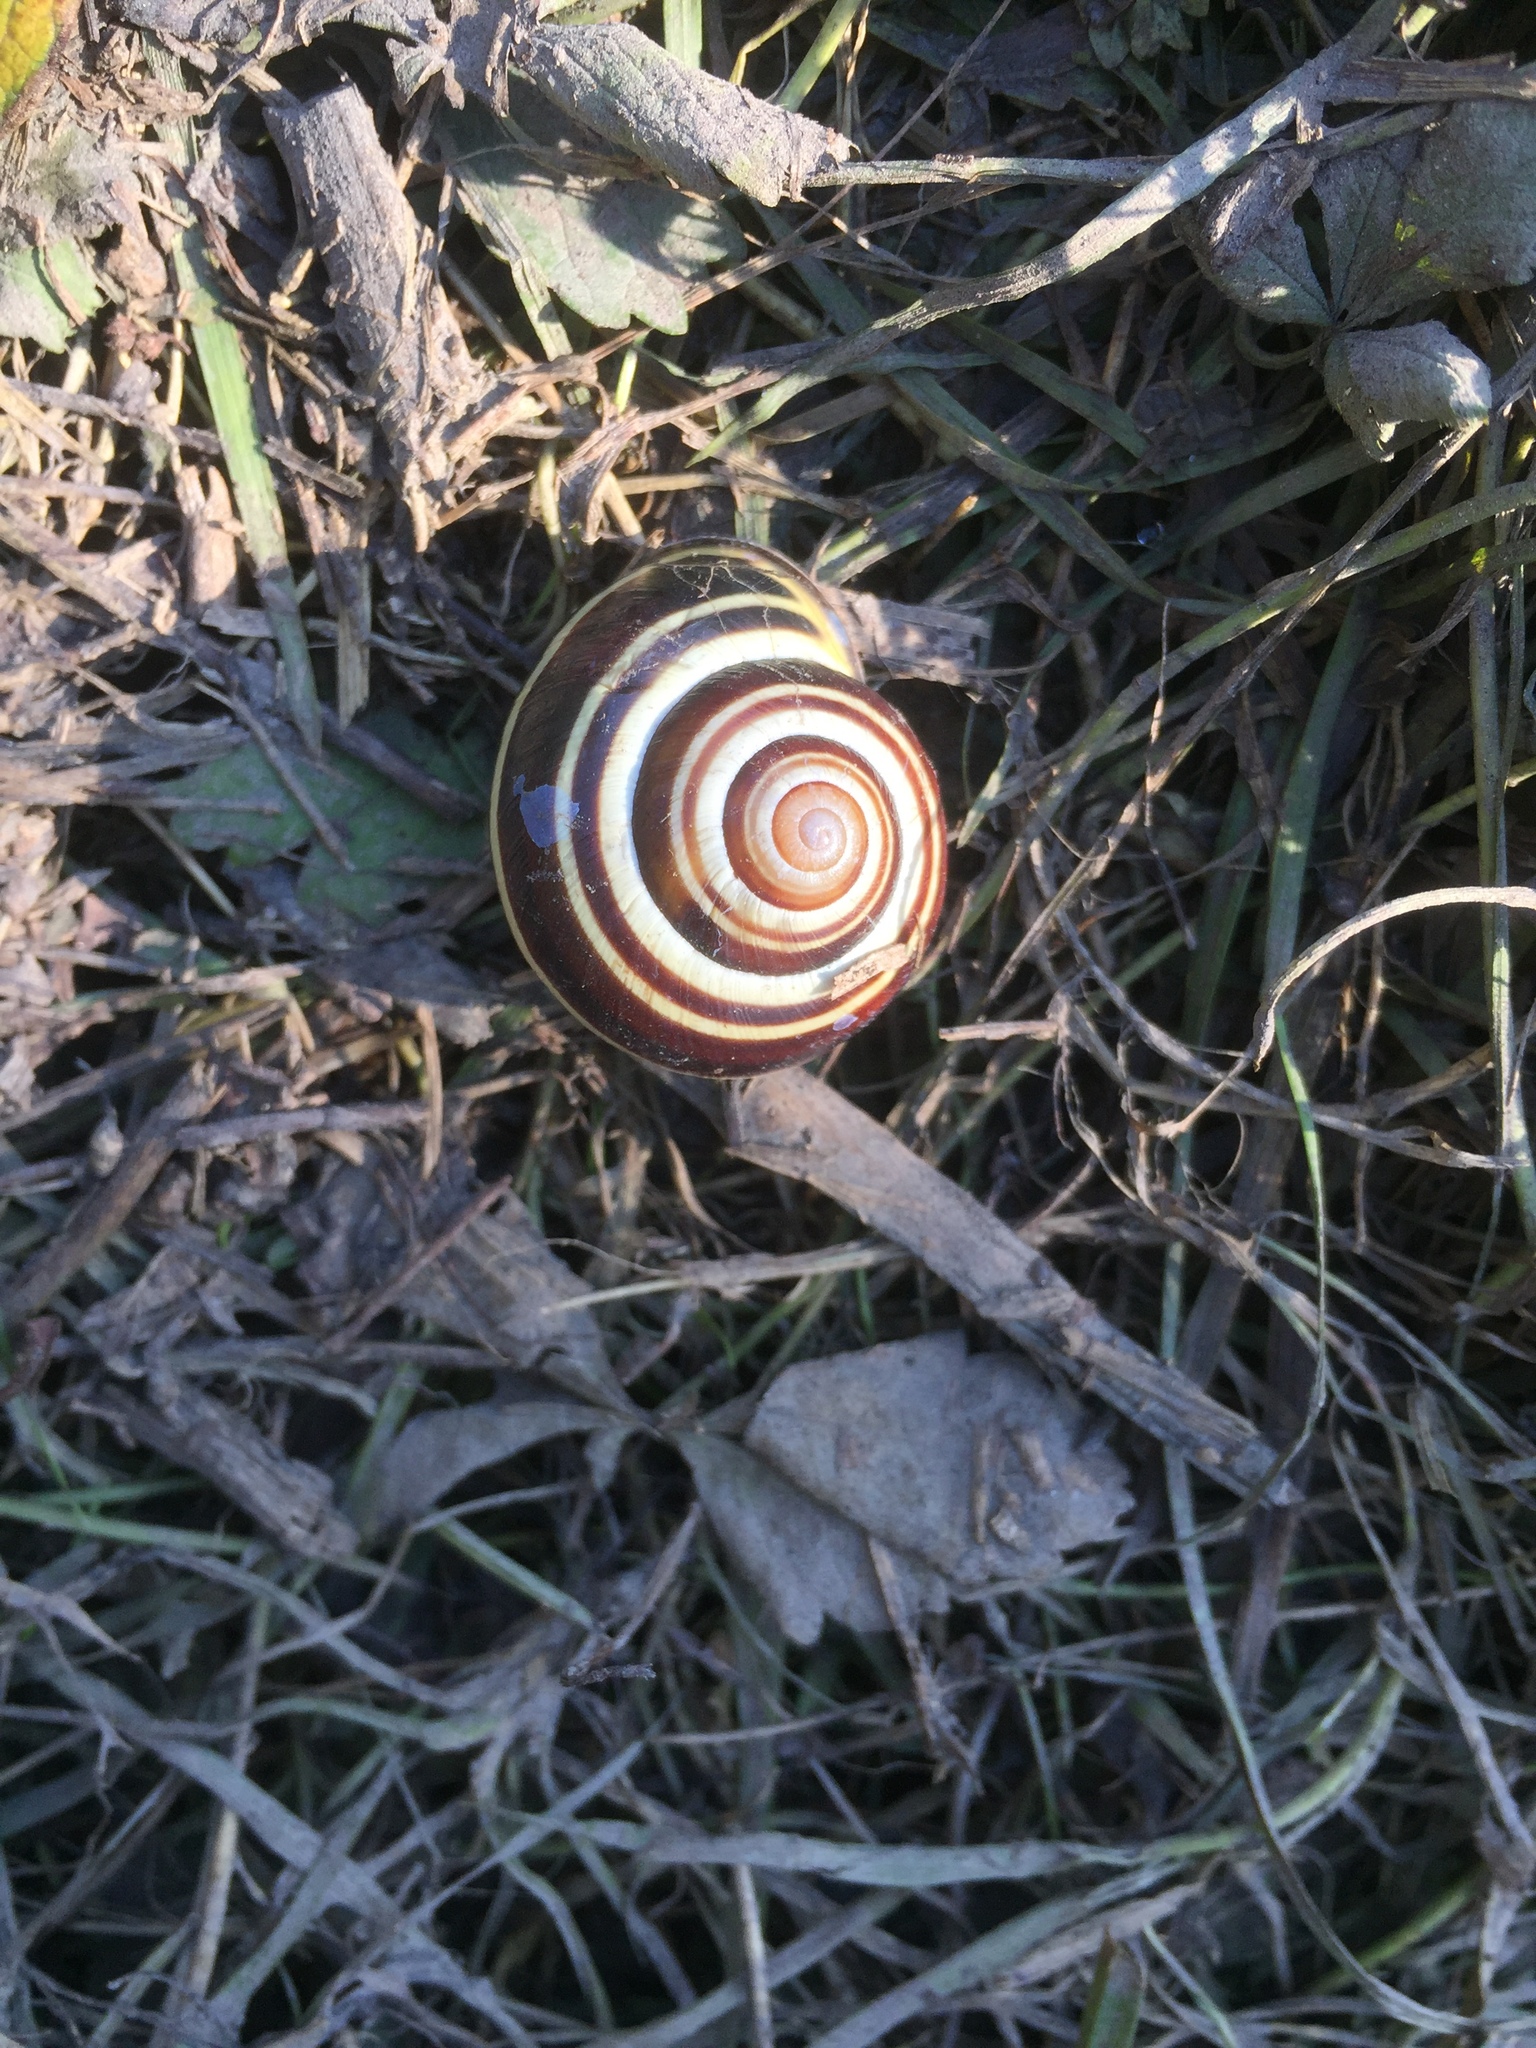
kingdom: Animalia
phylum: Mollusca
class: Gastropoda
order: Stylommatophora
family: Helicidae
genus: Cepaea
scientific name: Cepaea nemoralis
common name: Grovesnail
